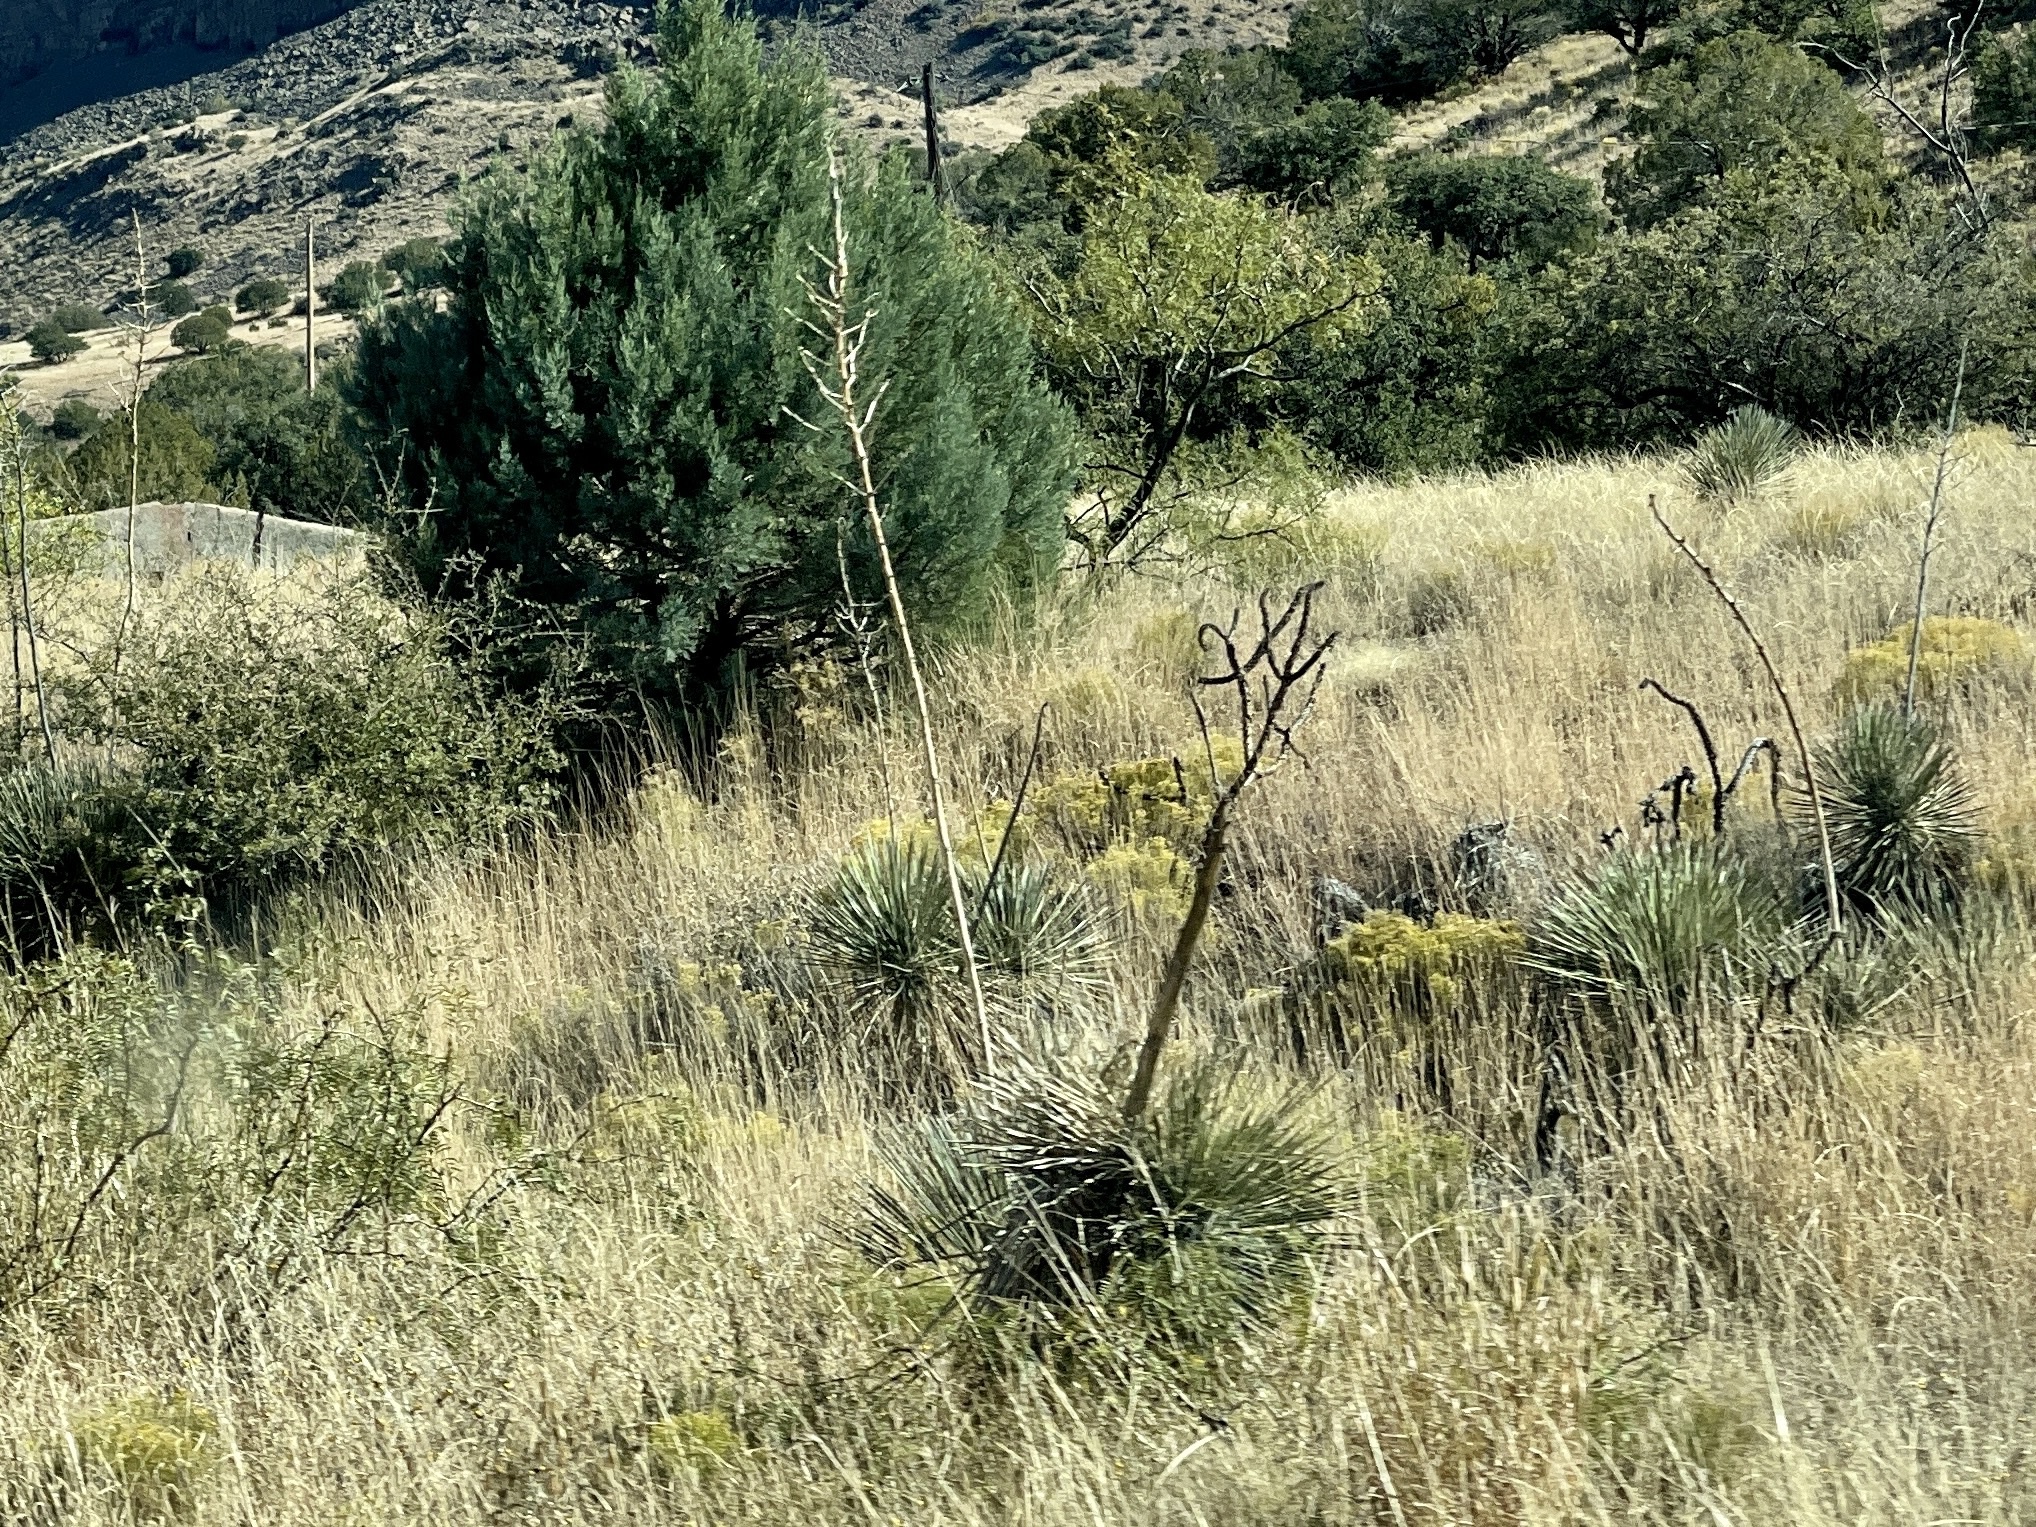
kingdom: Plantae
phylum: Tracheophyta
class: Liliopsida
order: Asparagales
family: Asparagaceae
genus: Yucca
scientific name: Yucca elata
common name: Palmella
